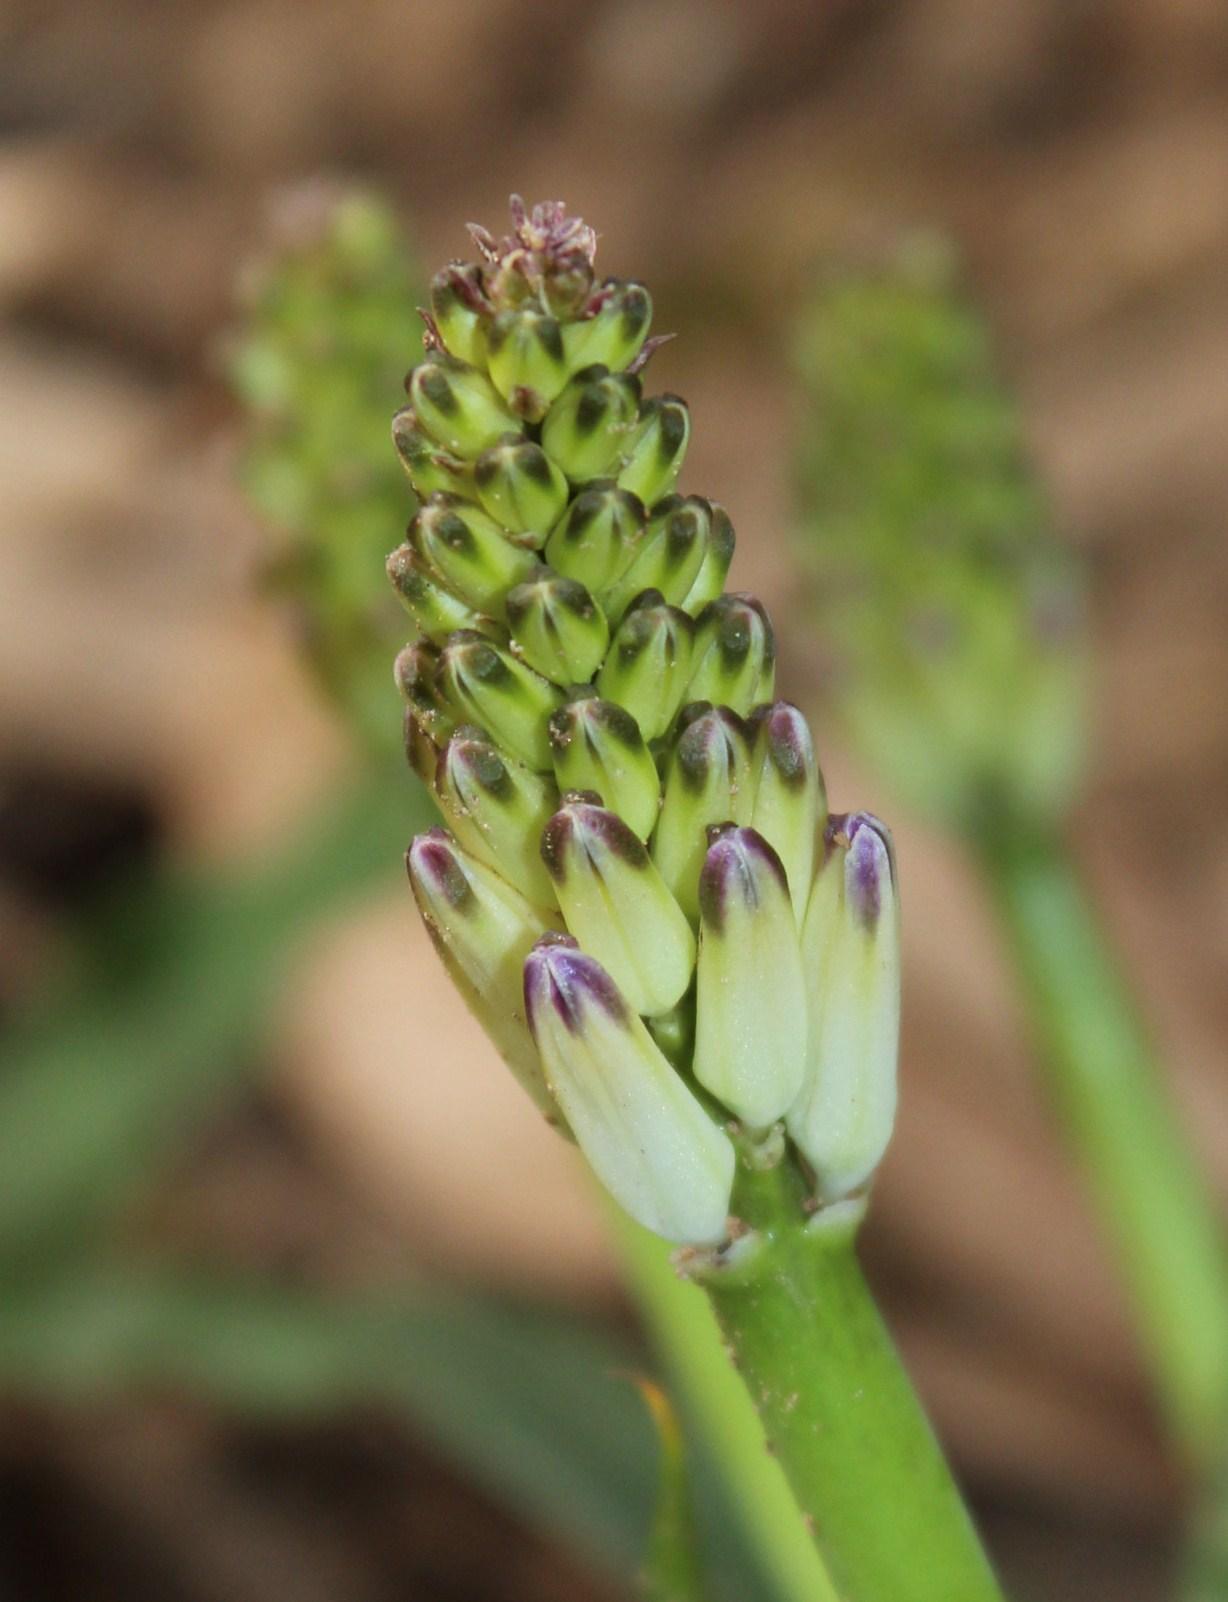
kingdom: Plantae
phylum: Tracheophyta
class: Liliopsida
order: Asparagales
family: Asparagaceae
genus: Lachenalia
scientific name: Lachenalia liliiflora
